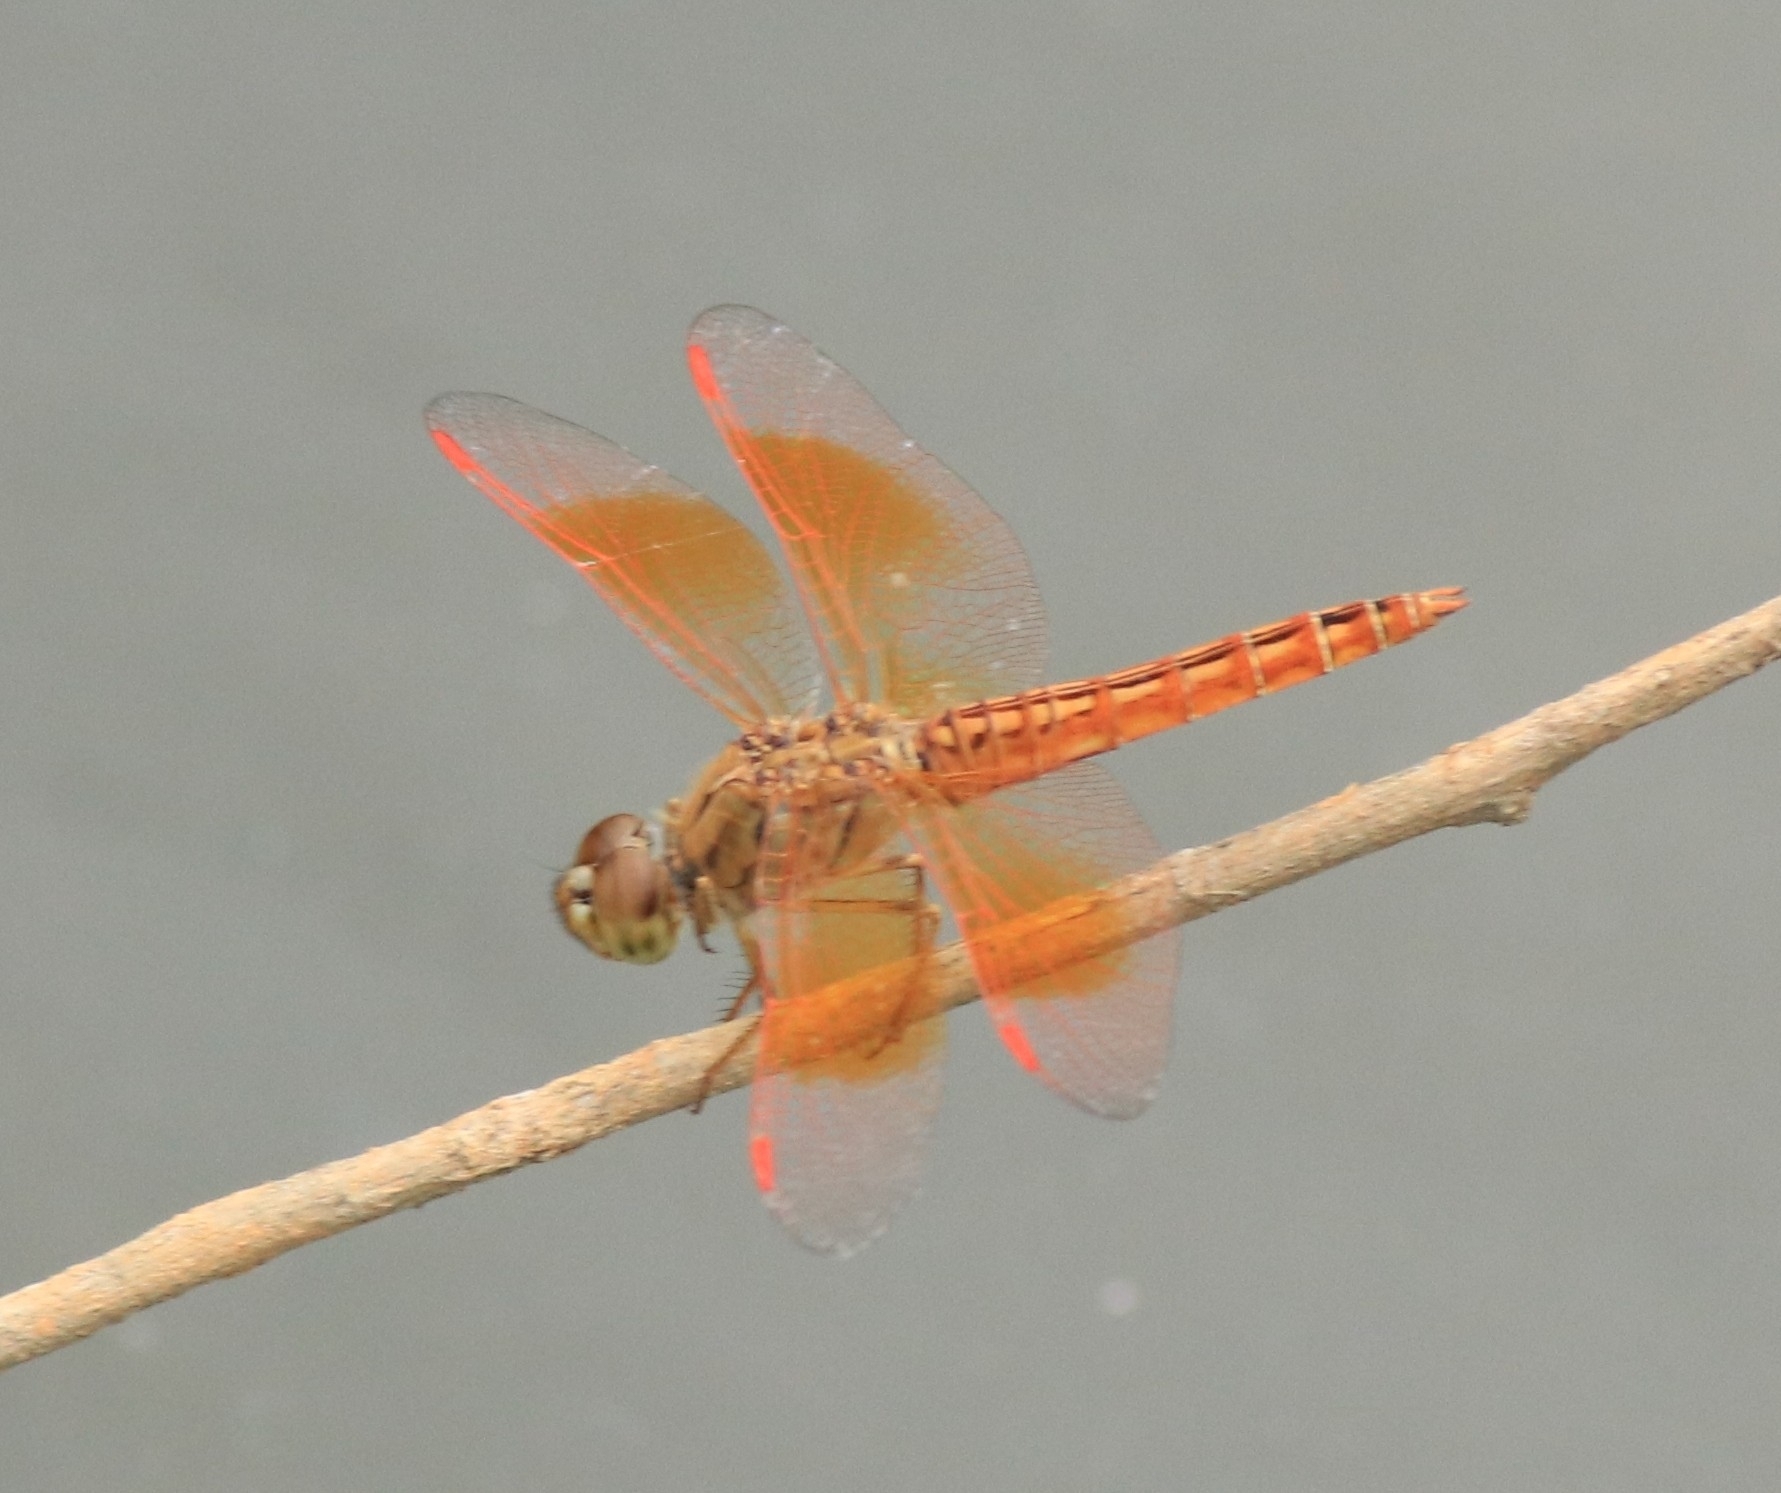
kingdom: Animalia
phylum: Arthropoda
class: Insecta
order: Odonata
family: Libellulidae
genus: Brachythemis
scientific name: Brachythemis contaminata
